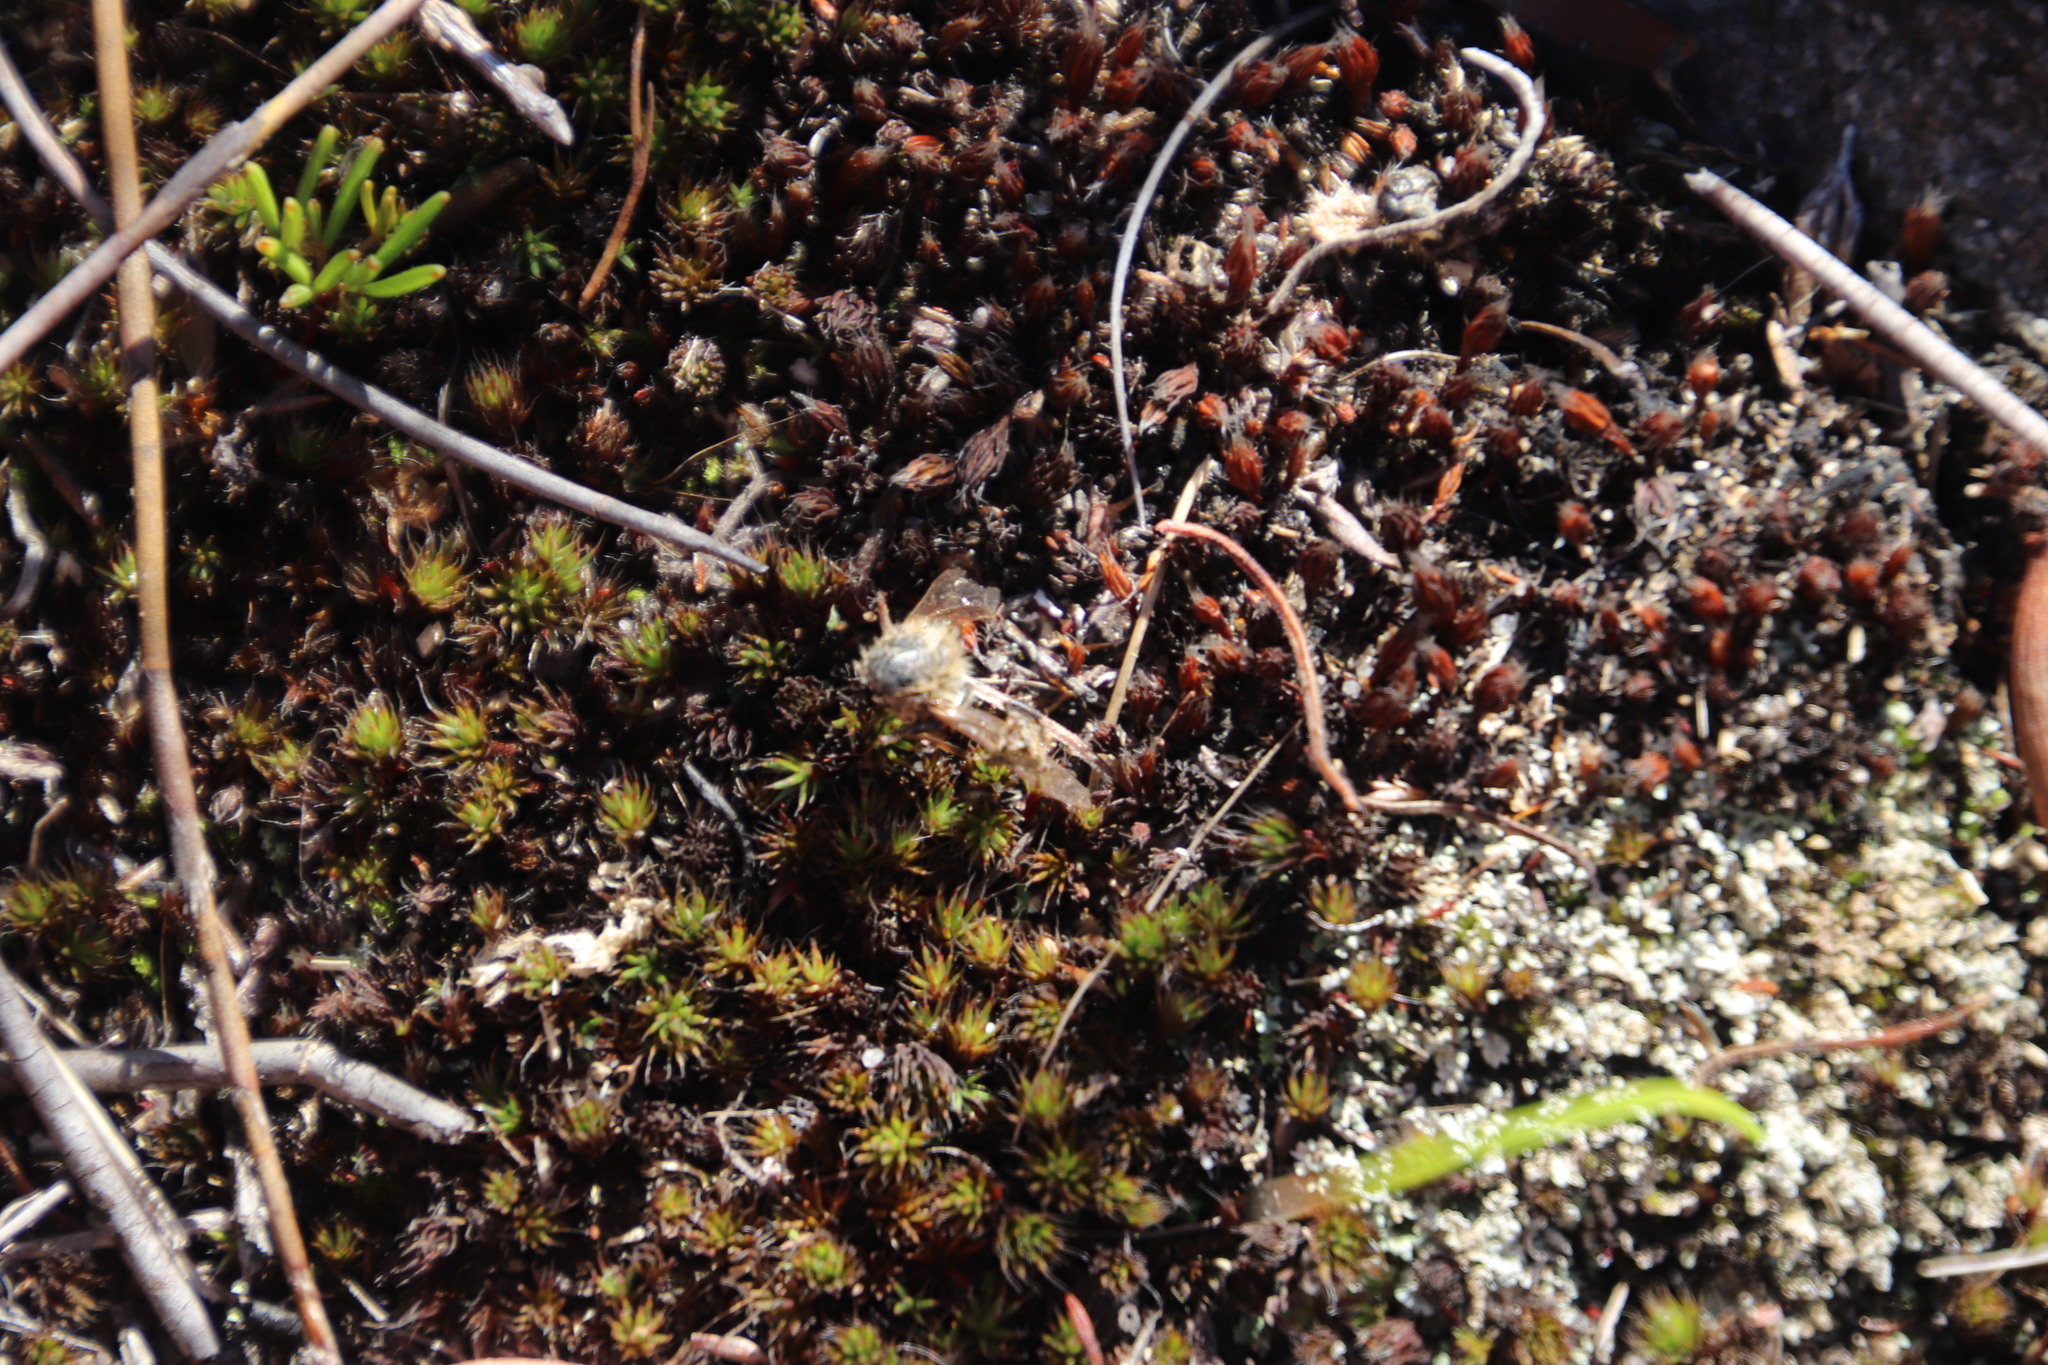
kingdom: Plantae
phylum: Bryophyta
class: Polytrichopsida
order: Polytrichales
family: Polytrichaceae
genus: Polytrichum
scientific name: Polytrichum piliferum
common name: Bristly haircap
